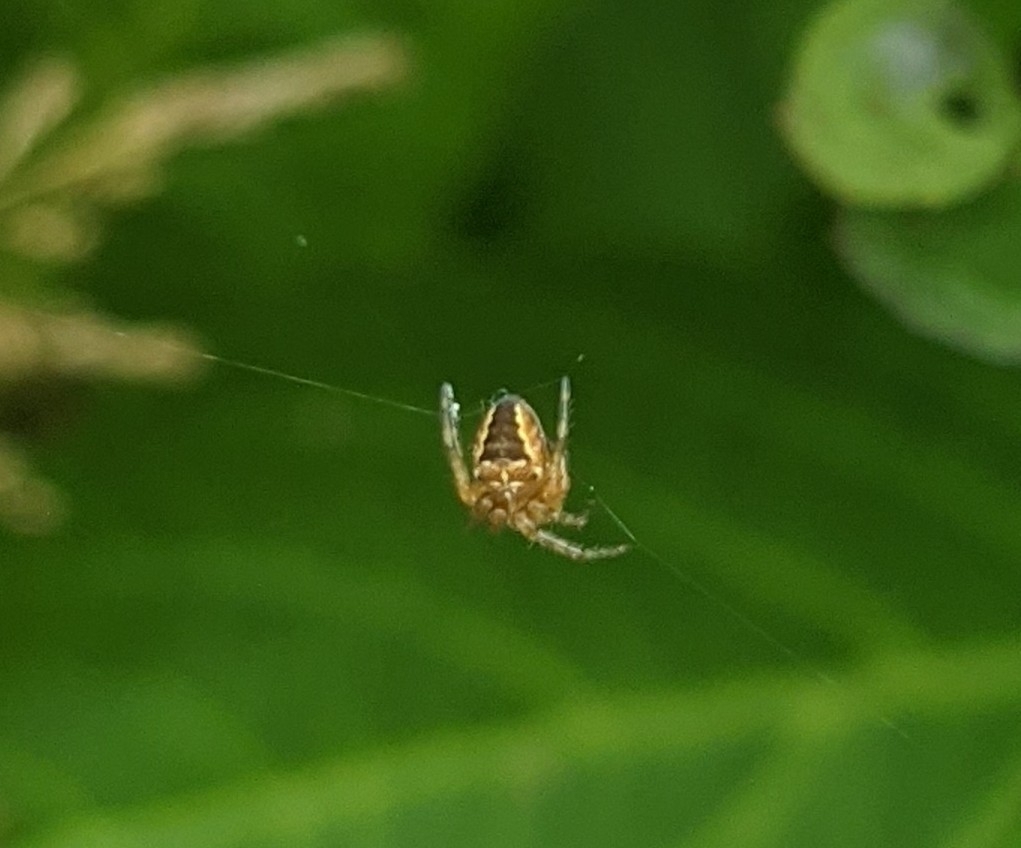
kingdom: Animalia
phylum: Arthropoda
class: Arachnida
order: Araneae
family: Araneidae
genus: Araneus
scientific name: Araneus diadematus
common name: Cross orbweaver
